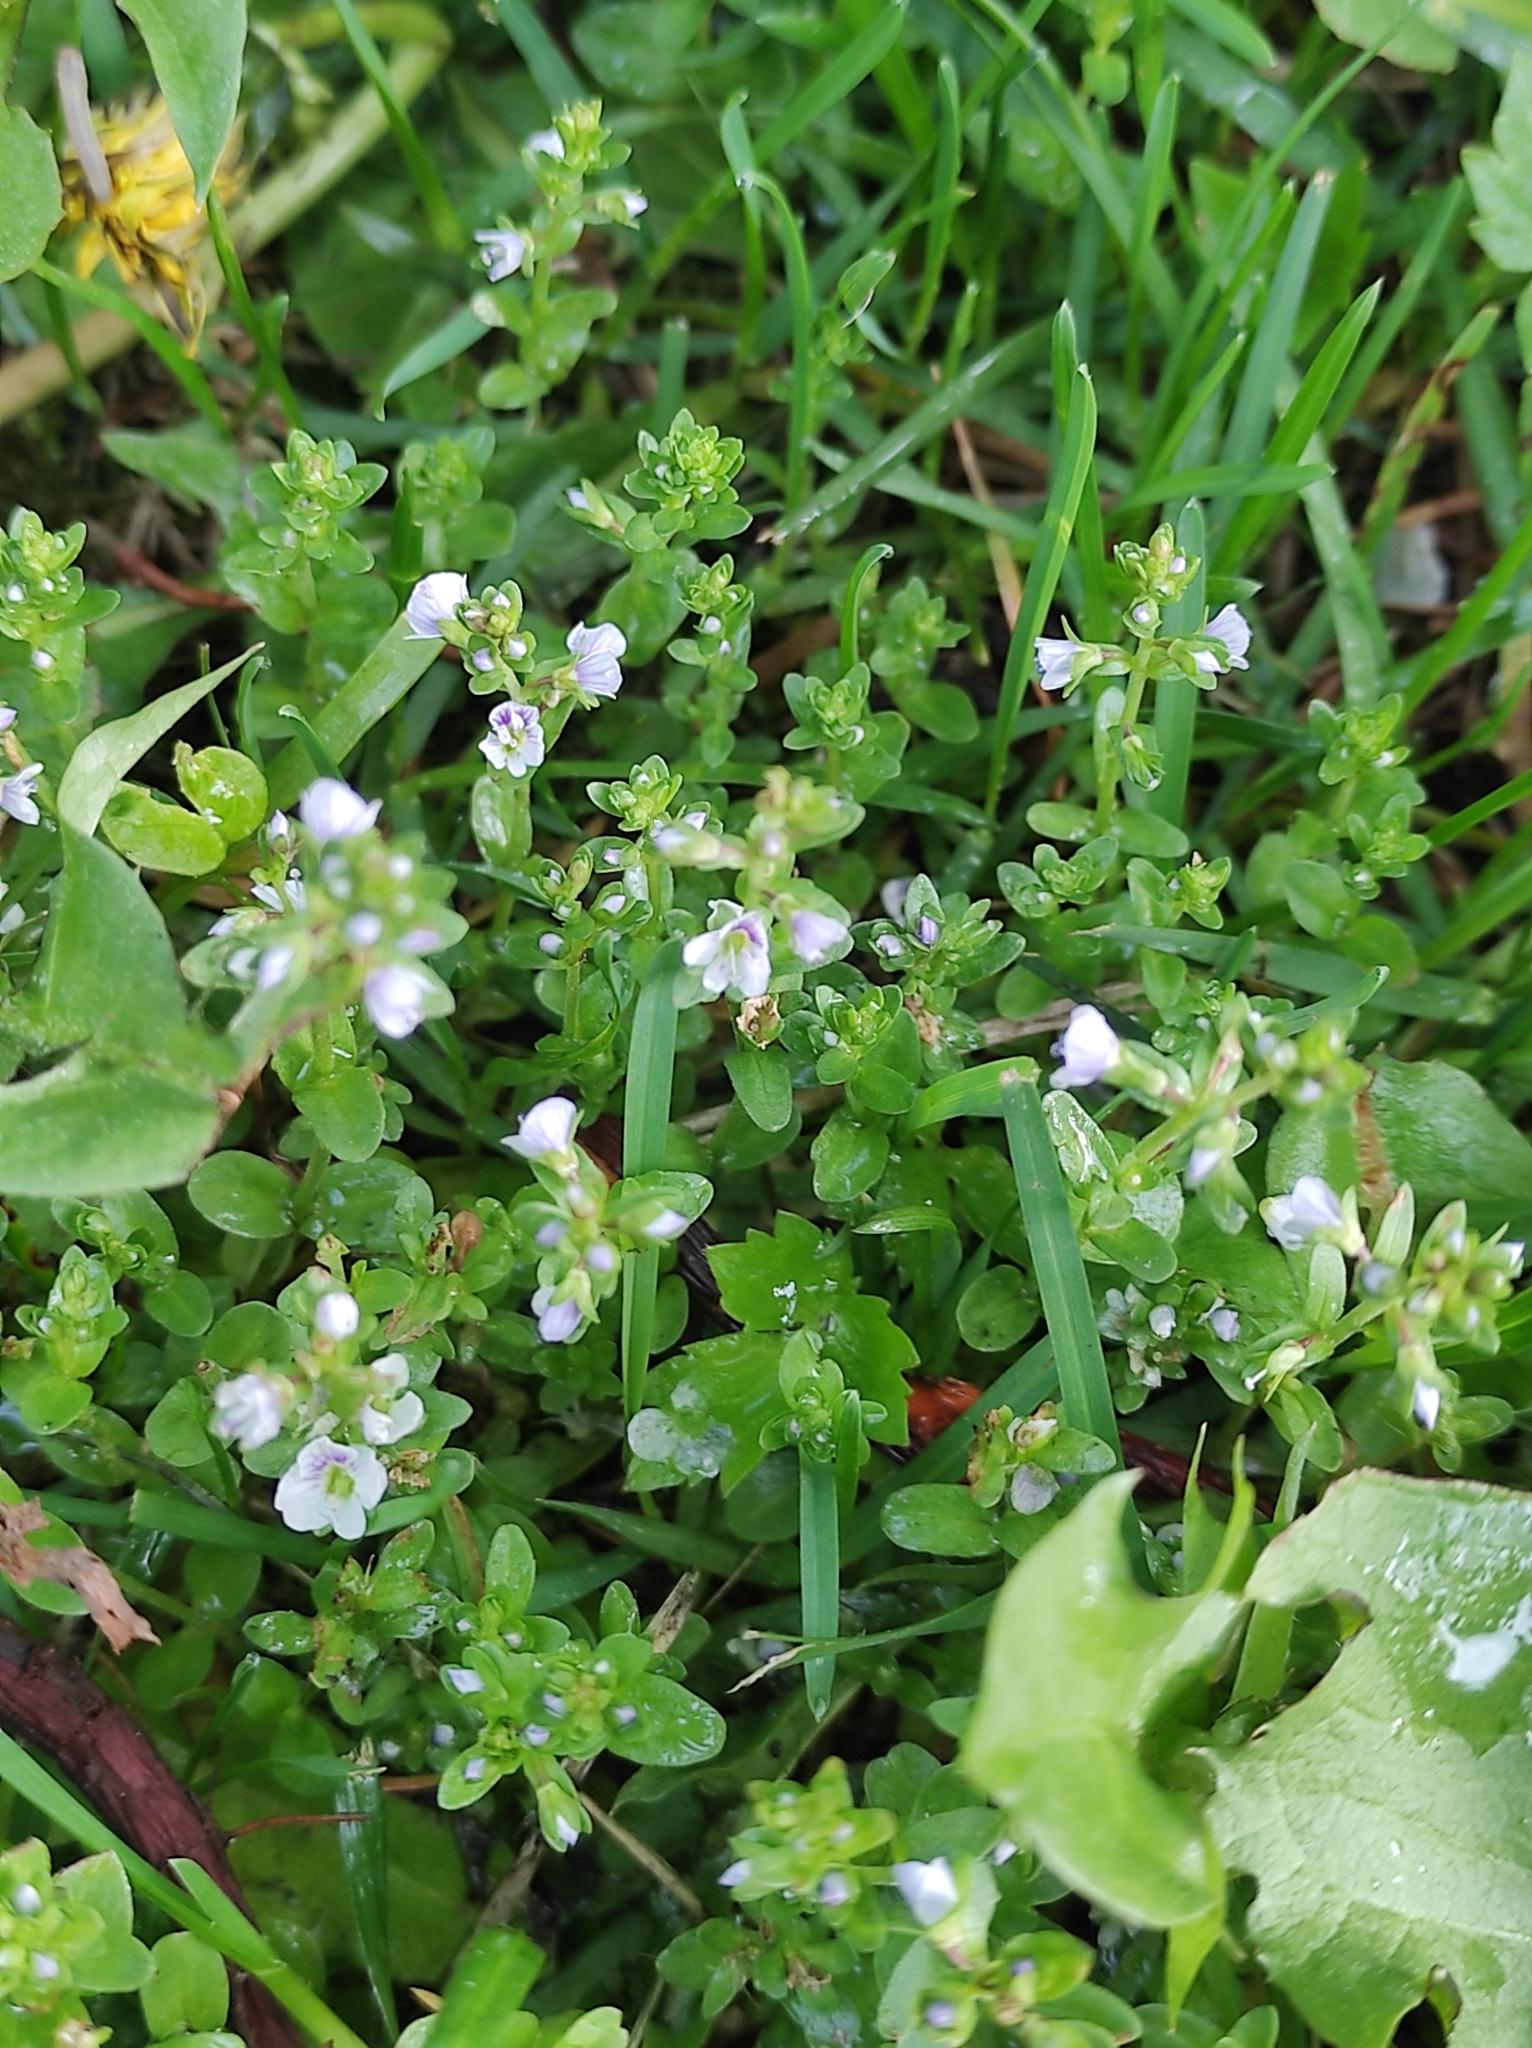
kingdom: Plantae
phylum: Tracheophyta
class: Magnoliopsida
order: Lamiales
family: Plantaginaceae
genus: Veronica
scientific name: Veronica serpyllifolia
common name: Thyme-leaved speedwell
